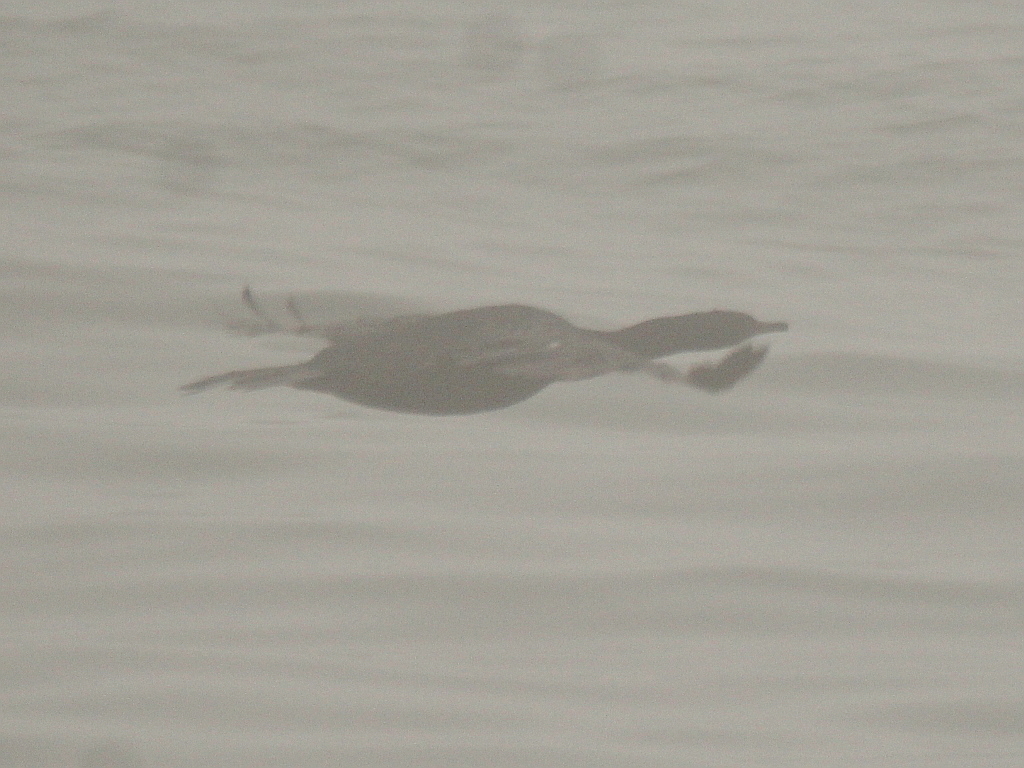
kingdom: Animalia
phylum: Chordata
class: Aves
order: Suliformes
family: Phalacrocoracidae
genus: Phalacrocorax
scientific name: Phalacrocorax pelagicus
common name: Pelagic cormorant
